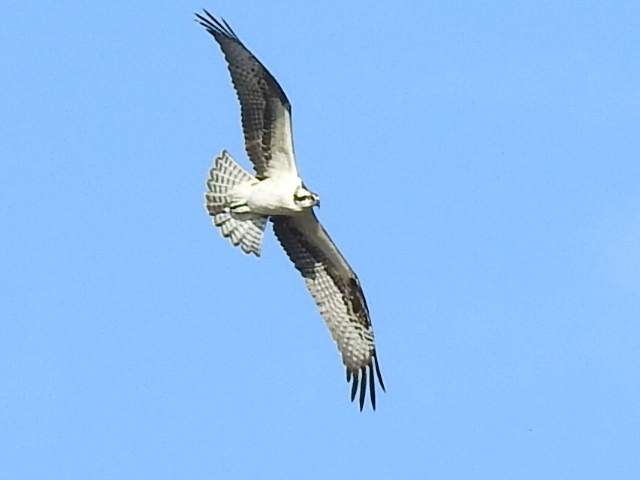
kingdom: Animalia
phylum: Chordata
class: Aves
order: Accipitriformes
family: Pandionidae
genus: Pandion
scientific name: Pandion haliaetus
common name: Osprey
